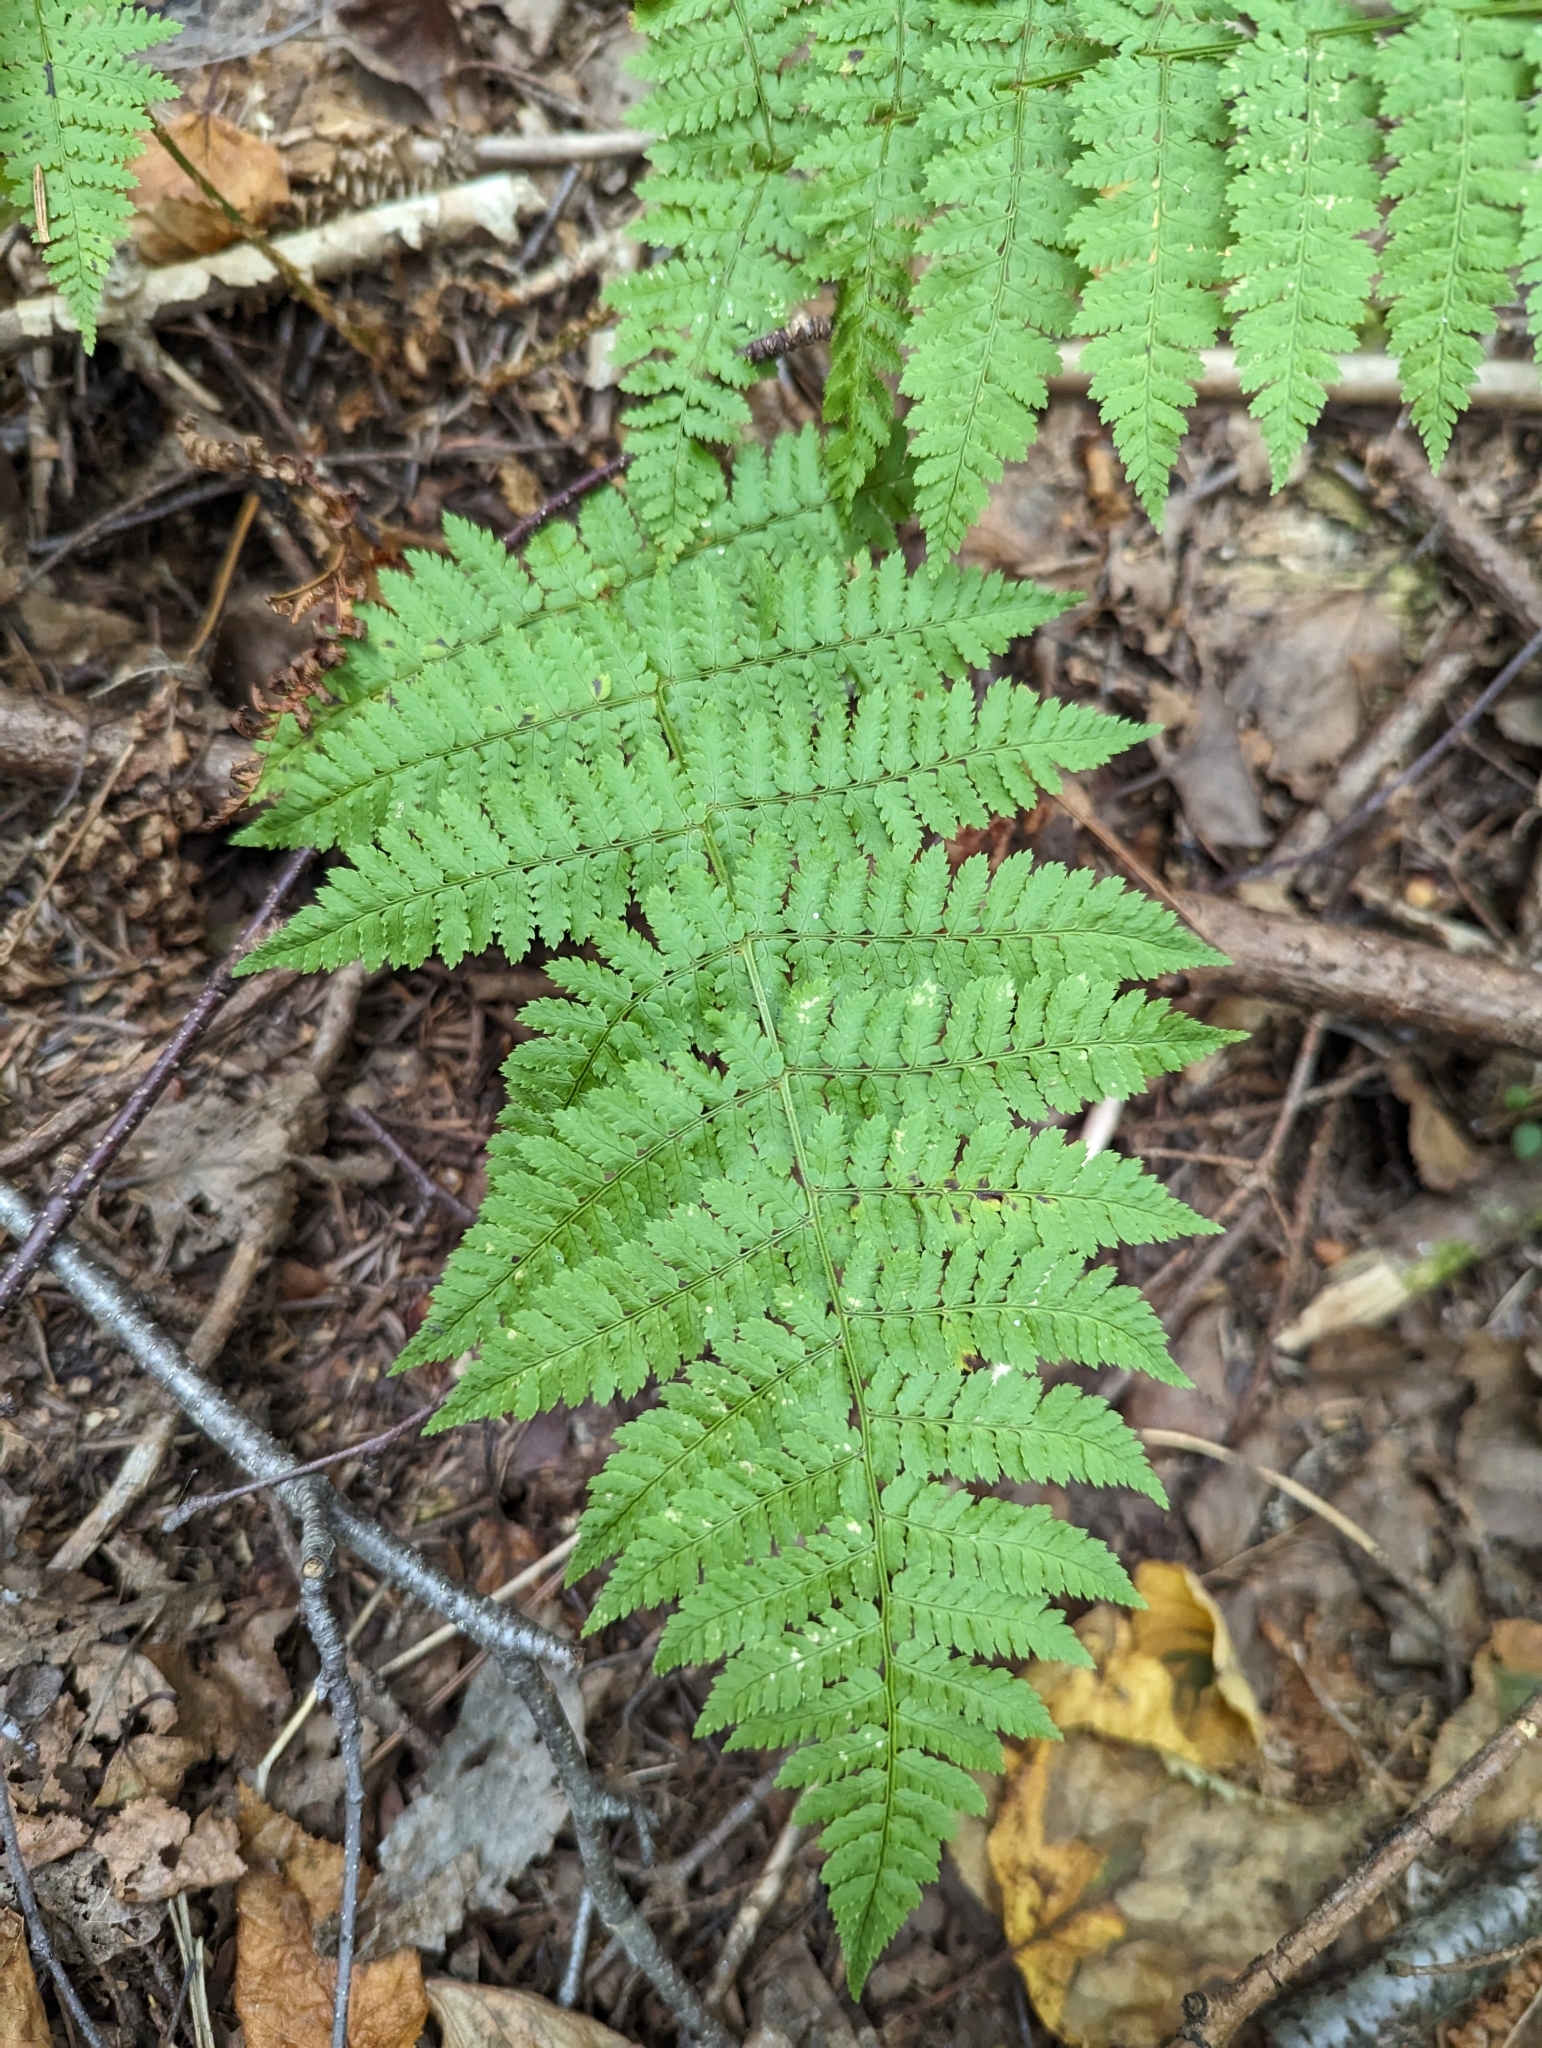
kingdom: Plantae
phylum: Tracheophyta
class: Polypodiopsida
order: Polypodiales
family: Dryopteridaceae
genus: Dryopteris
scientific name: Dryopteris intermedia
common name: Evergreen wood fern
